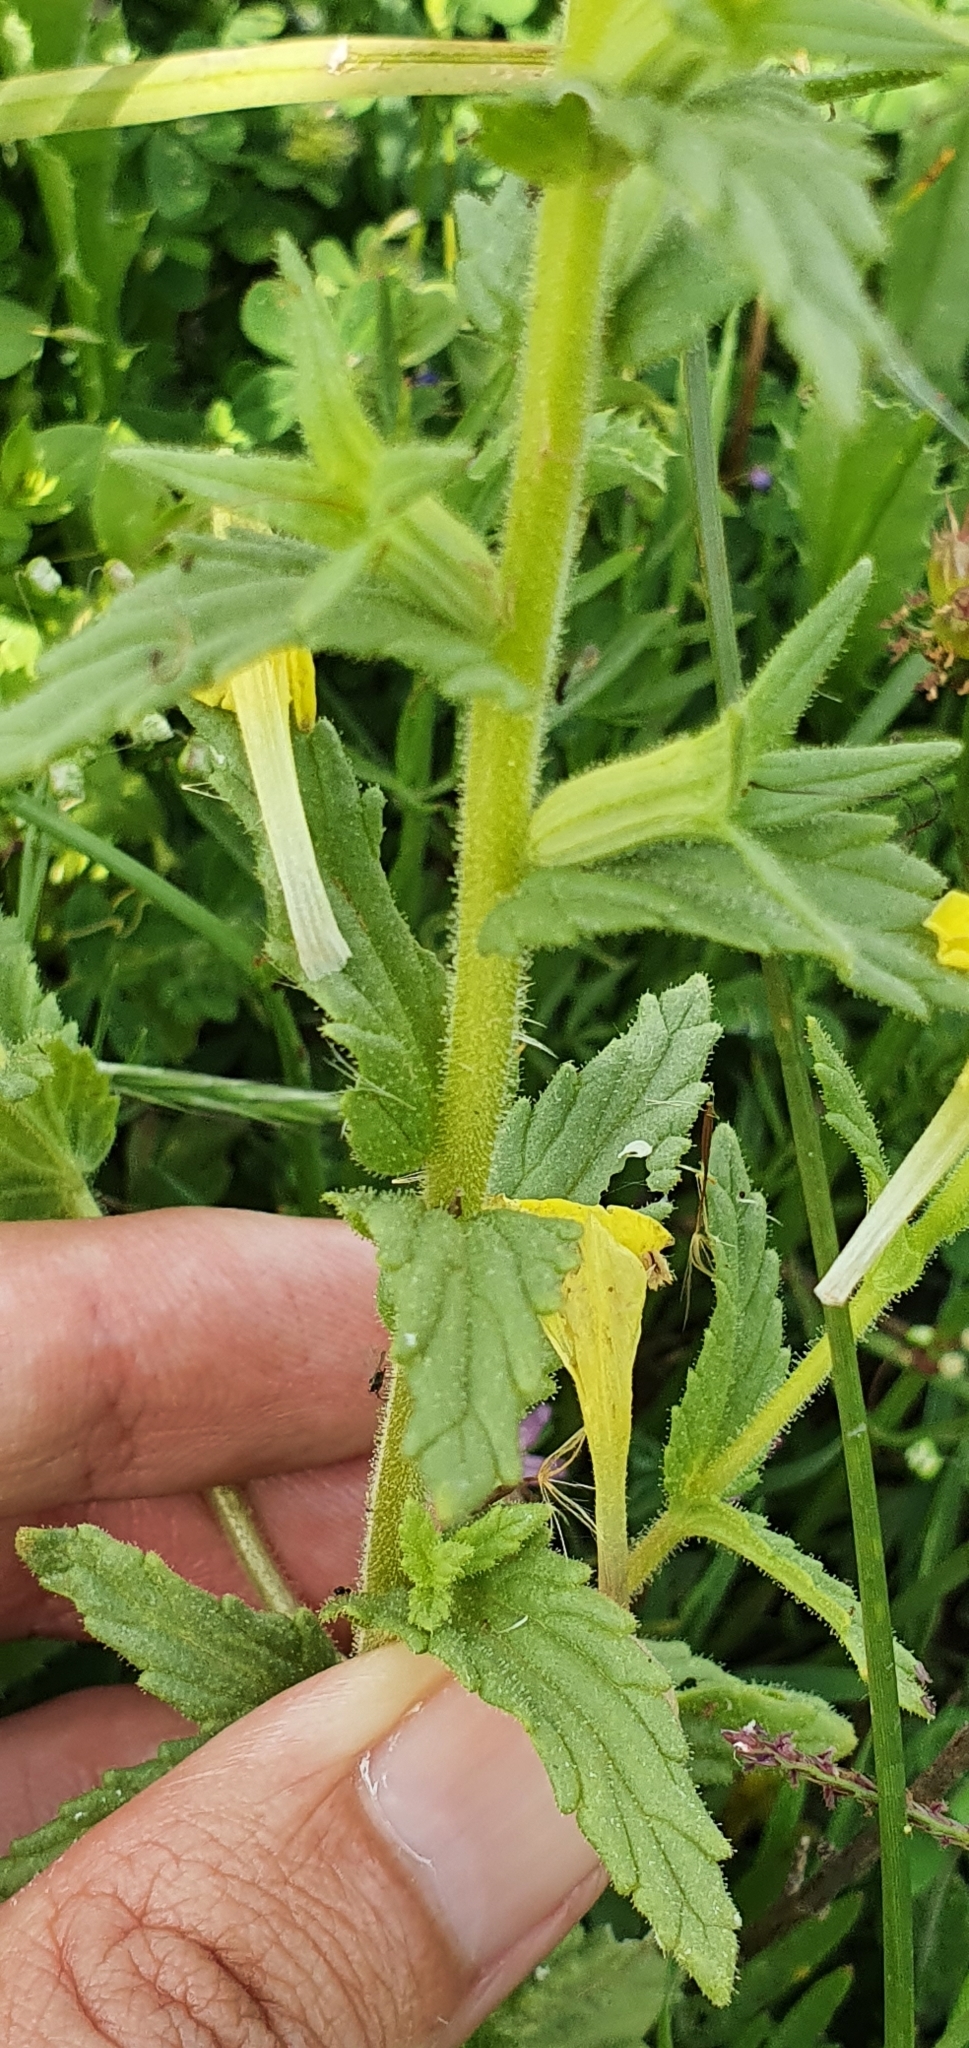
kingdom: Plantae
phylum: Tracheophyta
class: Magnoliopsida
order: Lamiales
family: Orobanchaceae
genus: Bellardia
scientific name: Bellardia viscosa
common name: Sticky parentucellia
